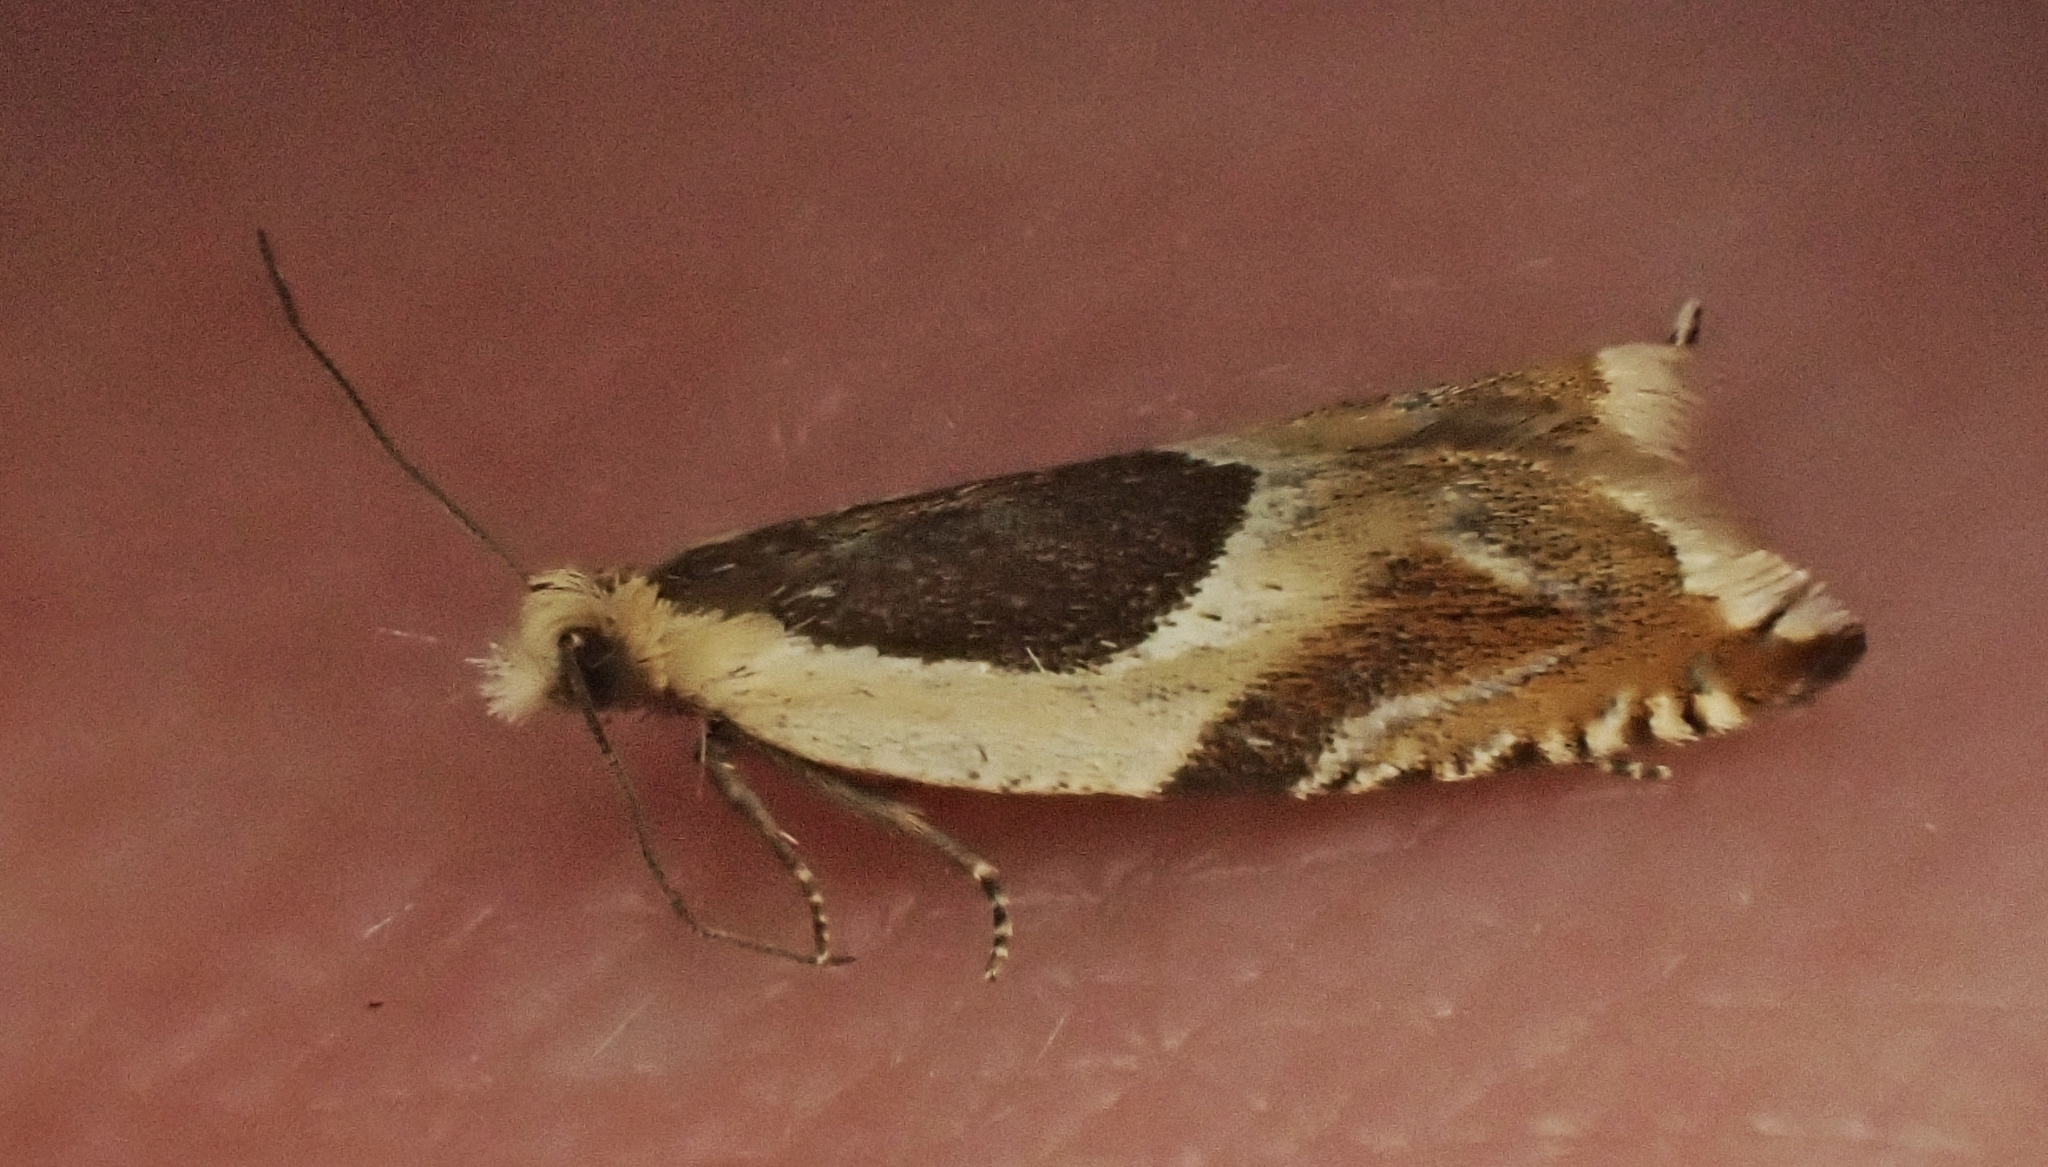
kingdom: Animalia
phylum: Arthropoda
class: Insecta
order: Lepidoptera
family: Tortricidae
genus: Ancylis
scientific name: Ancylis badiana
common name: Common roller
